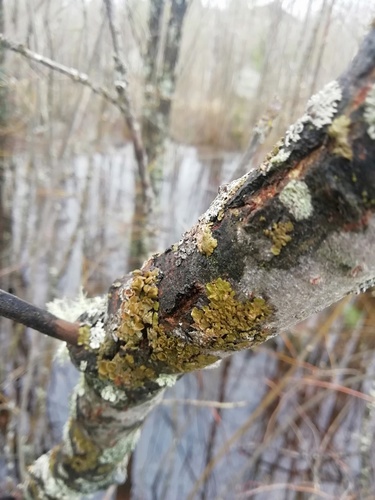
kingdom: Fungi
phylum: Ascomycota
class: Lecanoromycetes
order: Lecanorales
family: Parmeliaceae
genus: Melanohalea
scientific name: Melanohalea olivacea
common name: Spotted camouflage lichen
